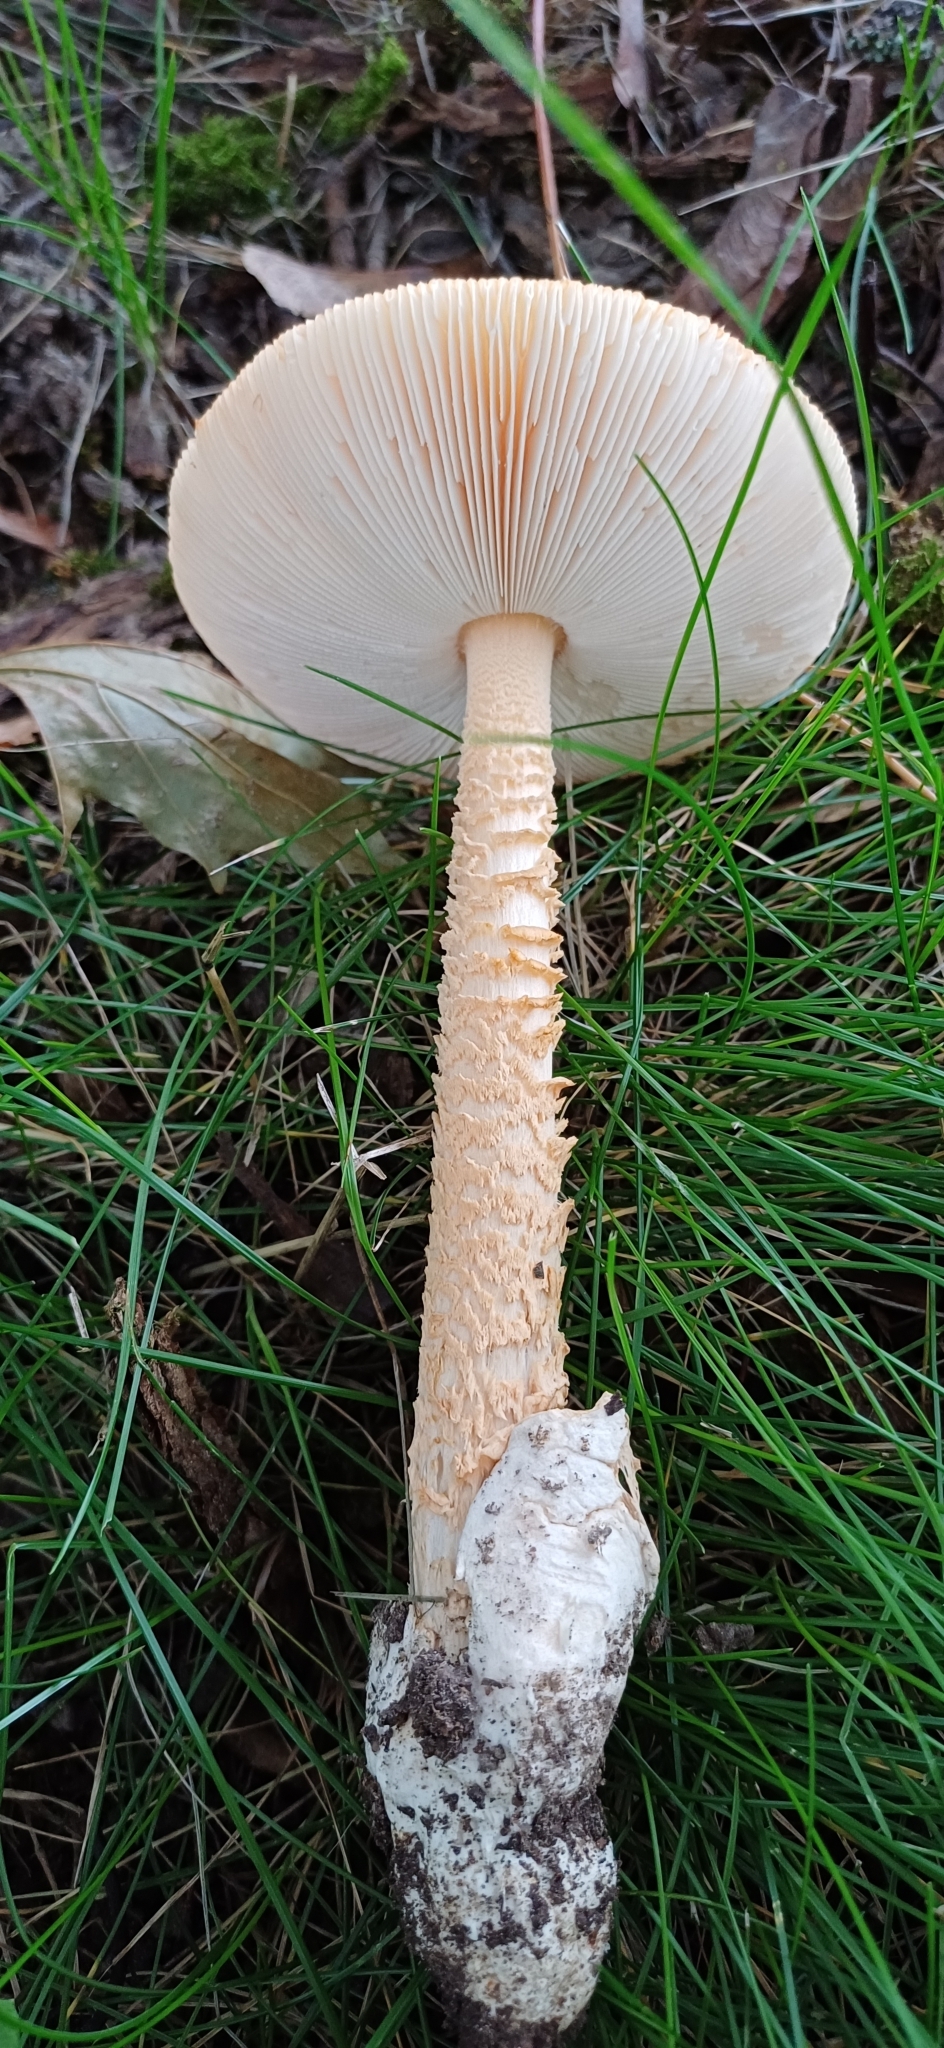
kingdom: Fungi
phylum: Basidiomycota
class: Agaricomycetes
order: Agaricales
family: Amanitaceae
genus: Amanita
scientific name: Amanita crocea
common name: Orange grisette
